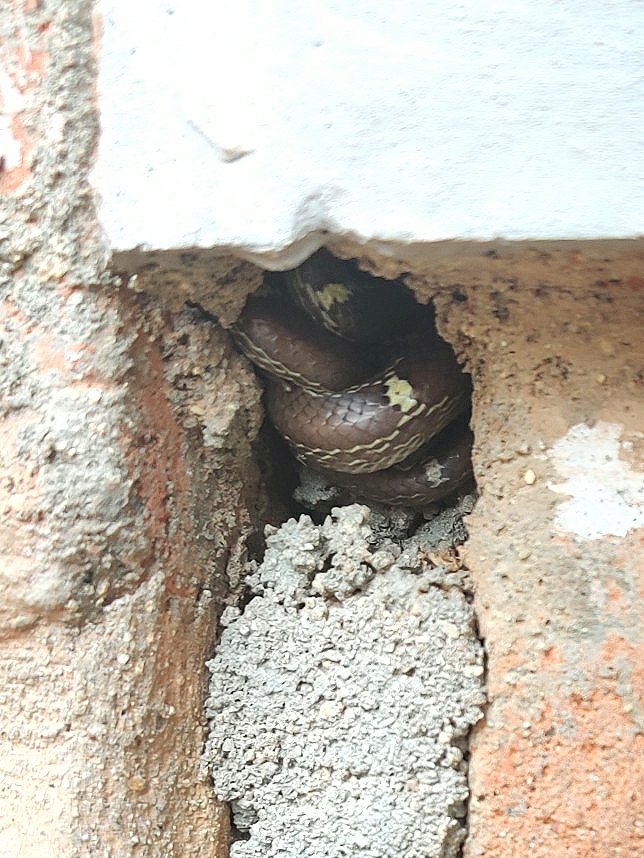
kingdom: Animalia
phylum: Chordata
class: Squamata
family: Colubridae
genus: Lycodon
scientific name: Lycodon fasciolatus
